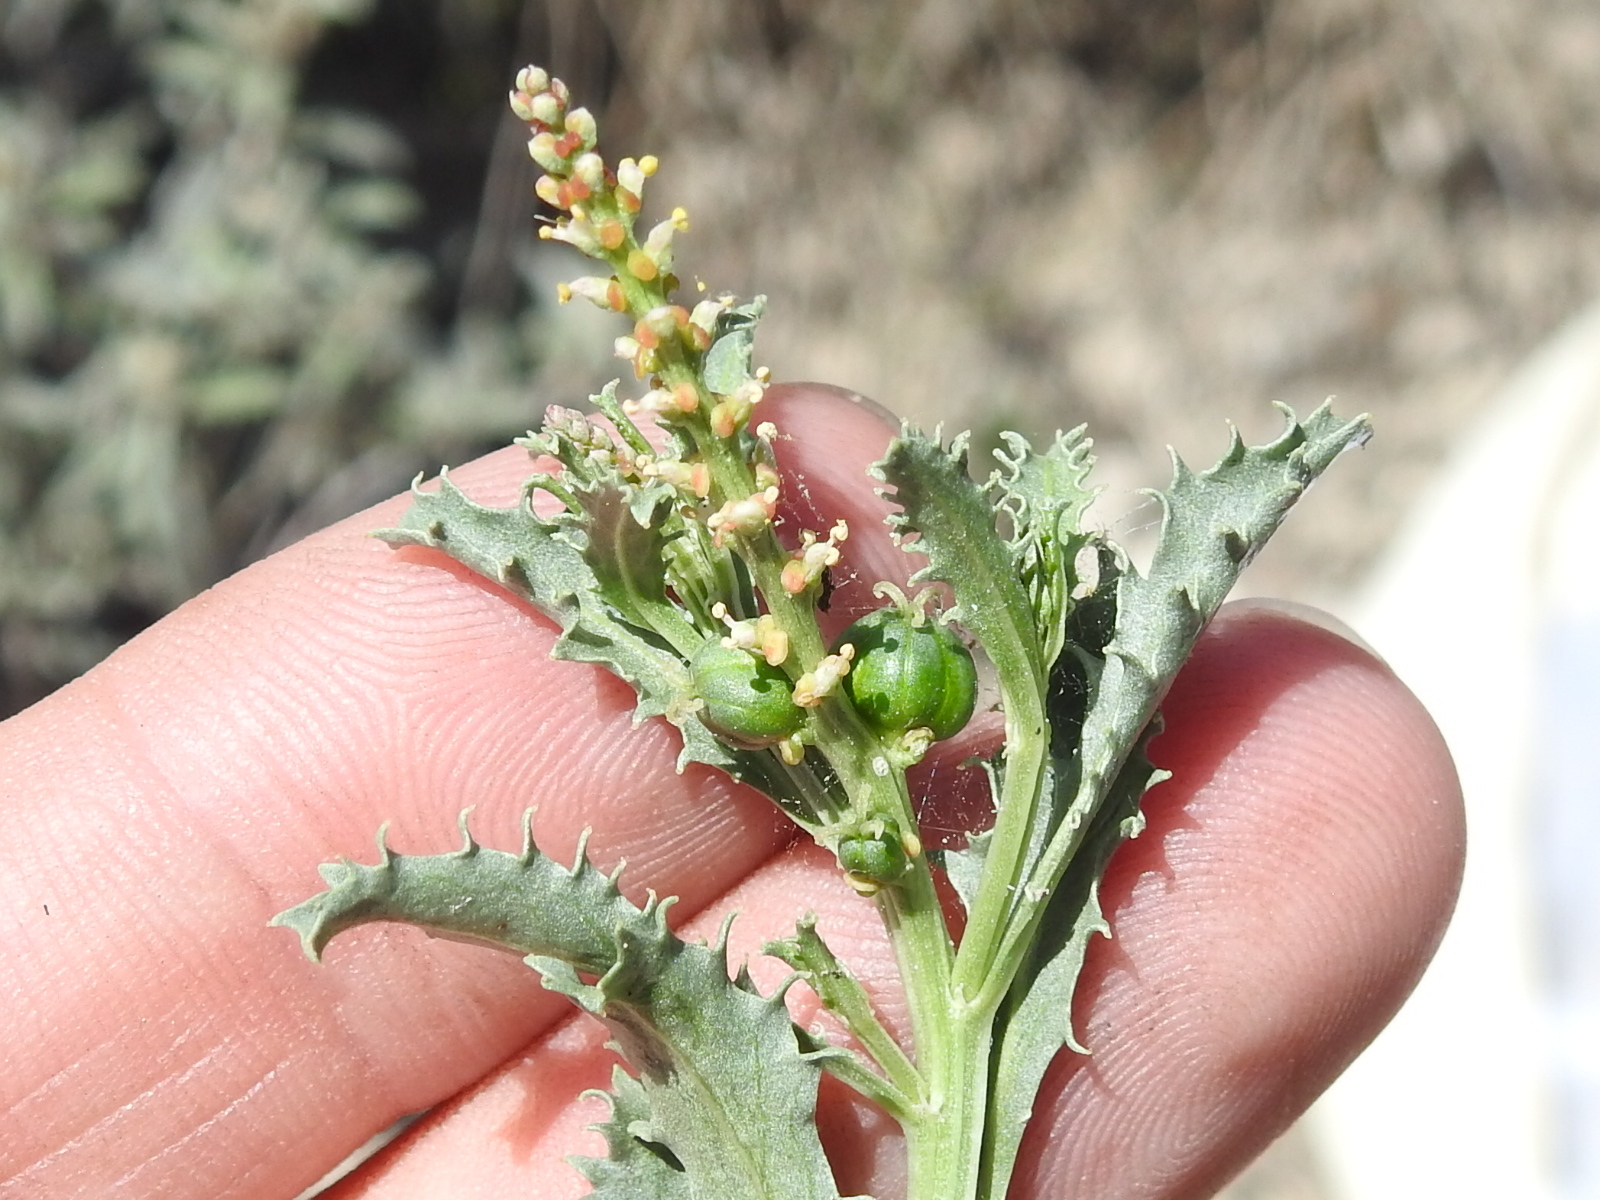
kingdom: Plantae
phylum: Tracheophyta
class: Magnoliopsida
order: Malpighiales
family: Euphorbiaceae
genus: Stillingia
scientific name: Stillingia treculiana
